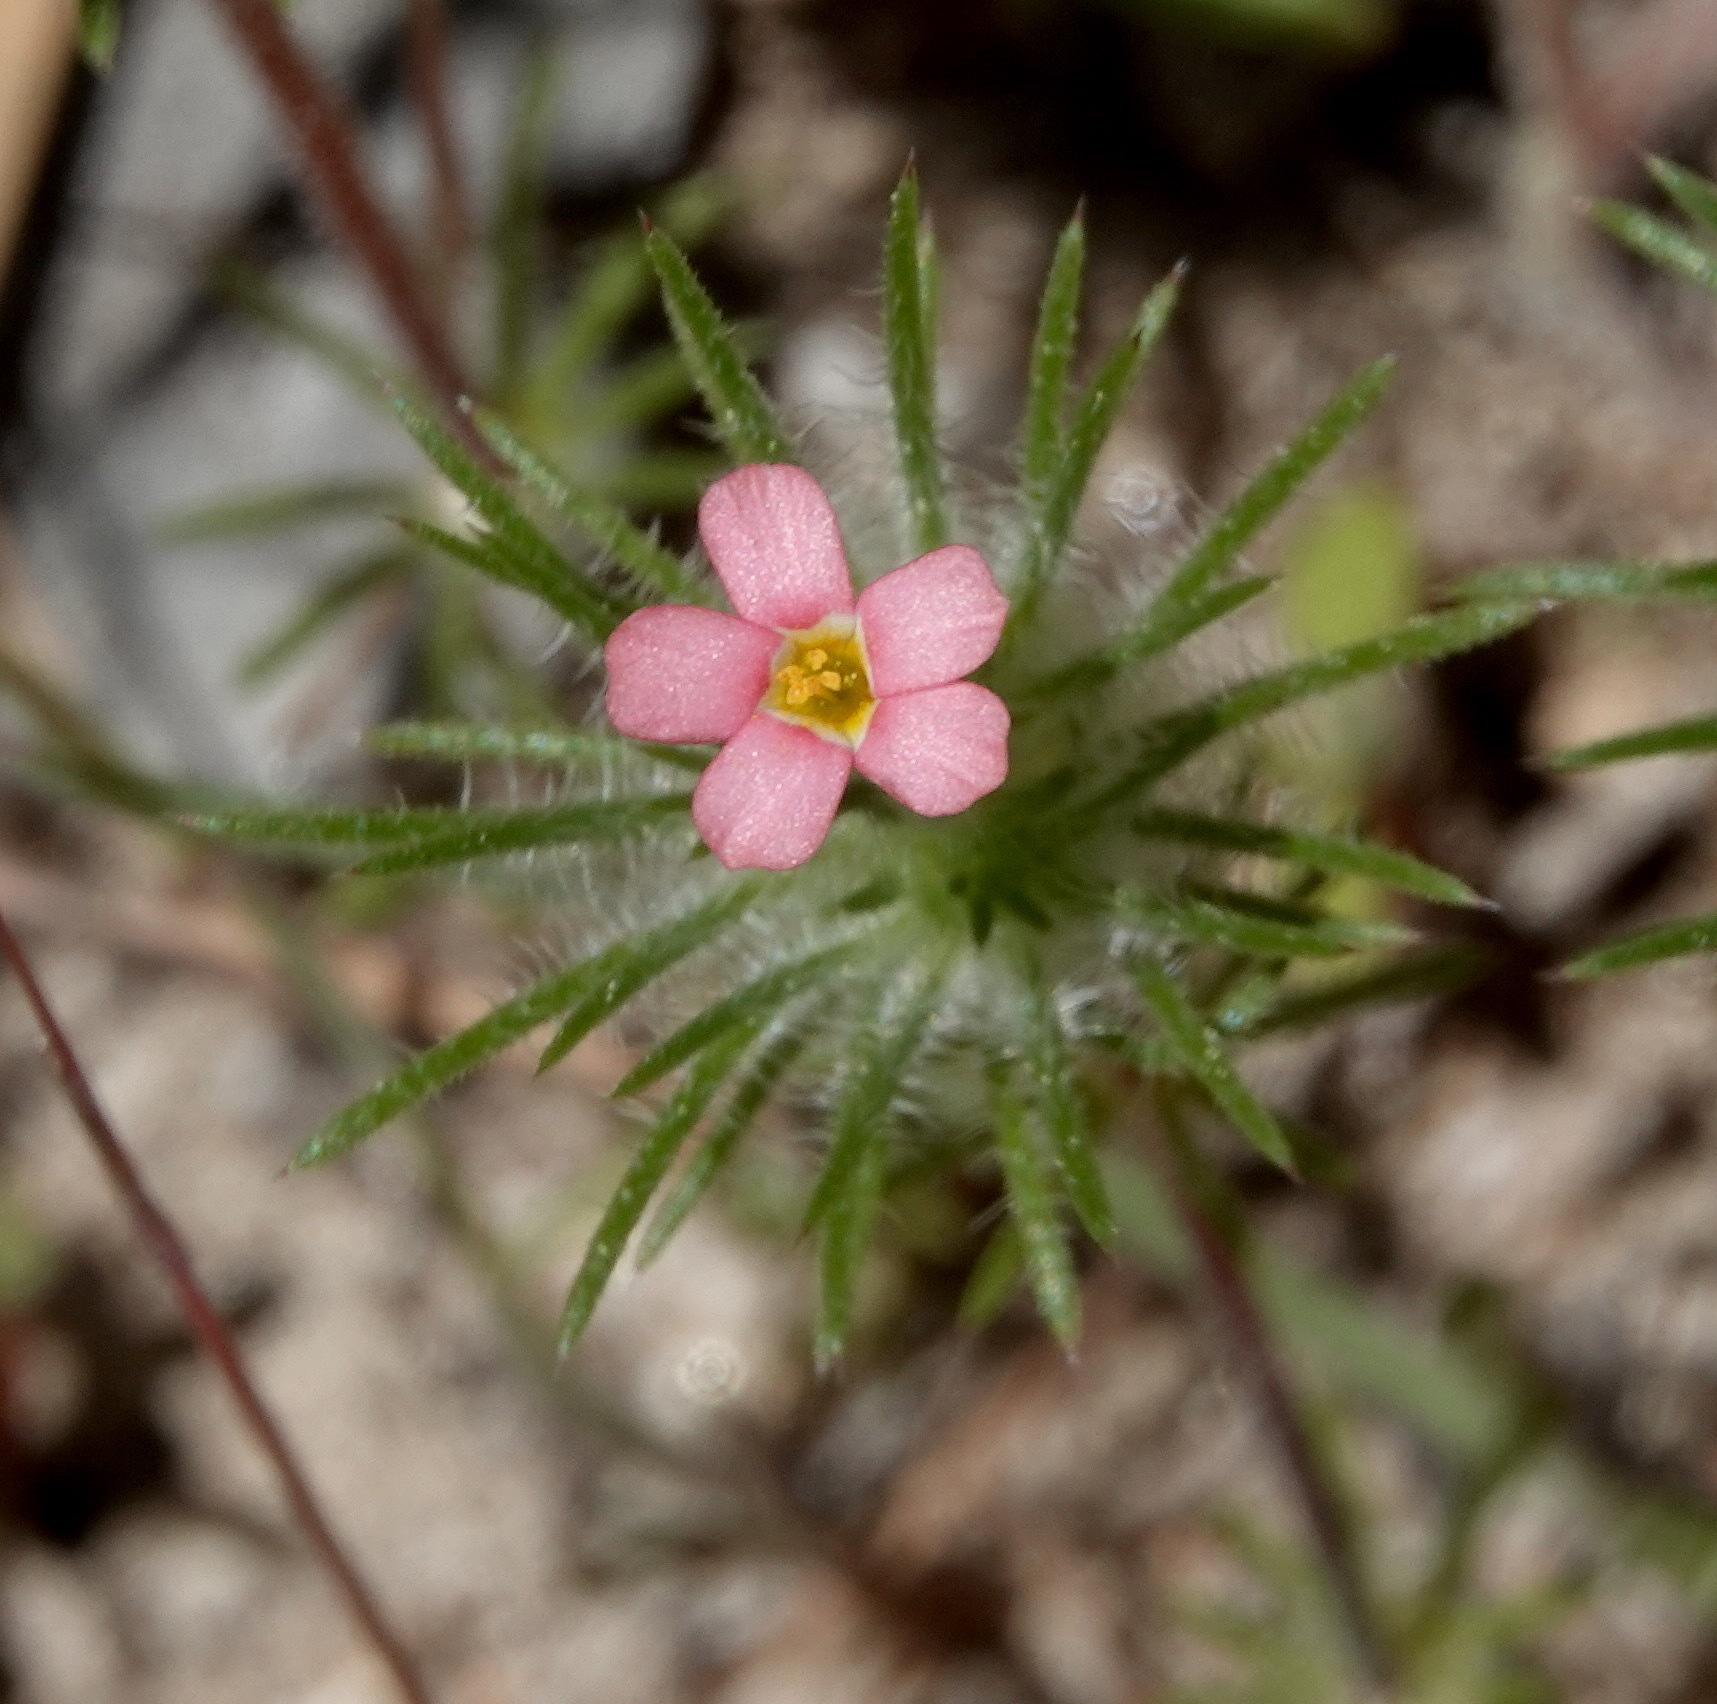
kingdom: Plantae
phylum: Tracheophyta
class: Magnoliopsida
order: Ericales
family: Polemoniaceae
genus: Leptosiphon
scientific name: Leptosiphon ciliatus
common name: Whiskerbrush
